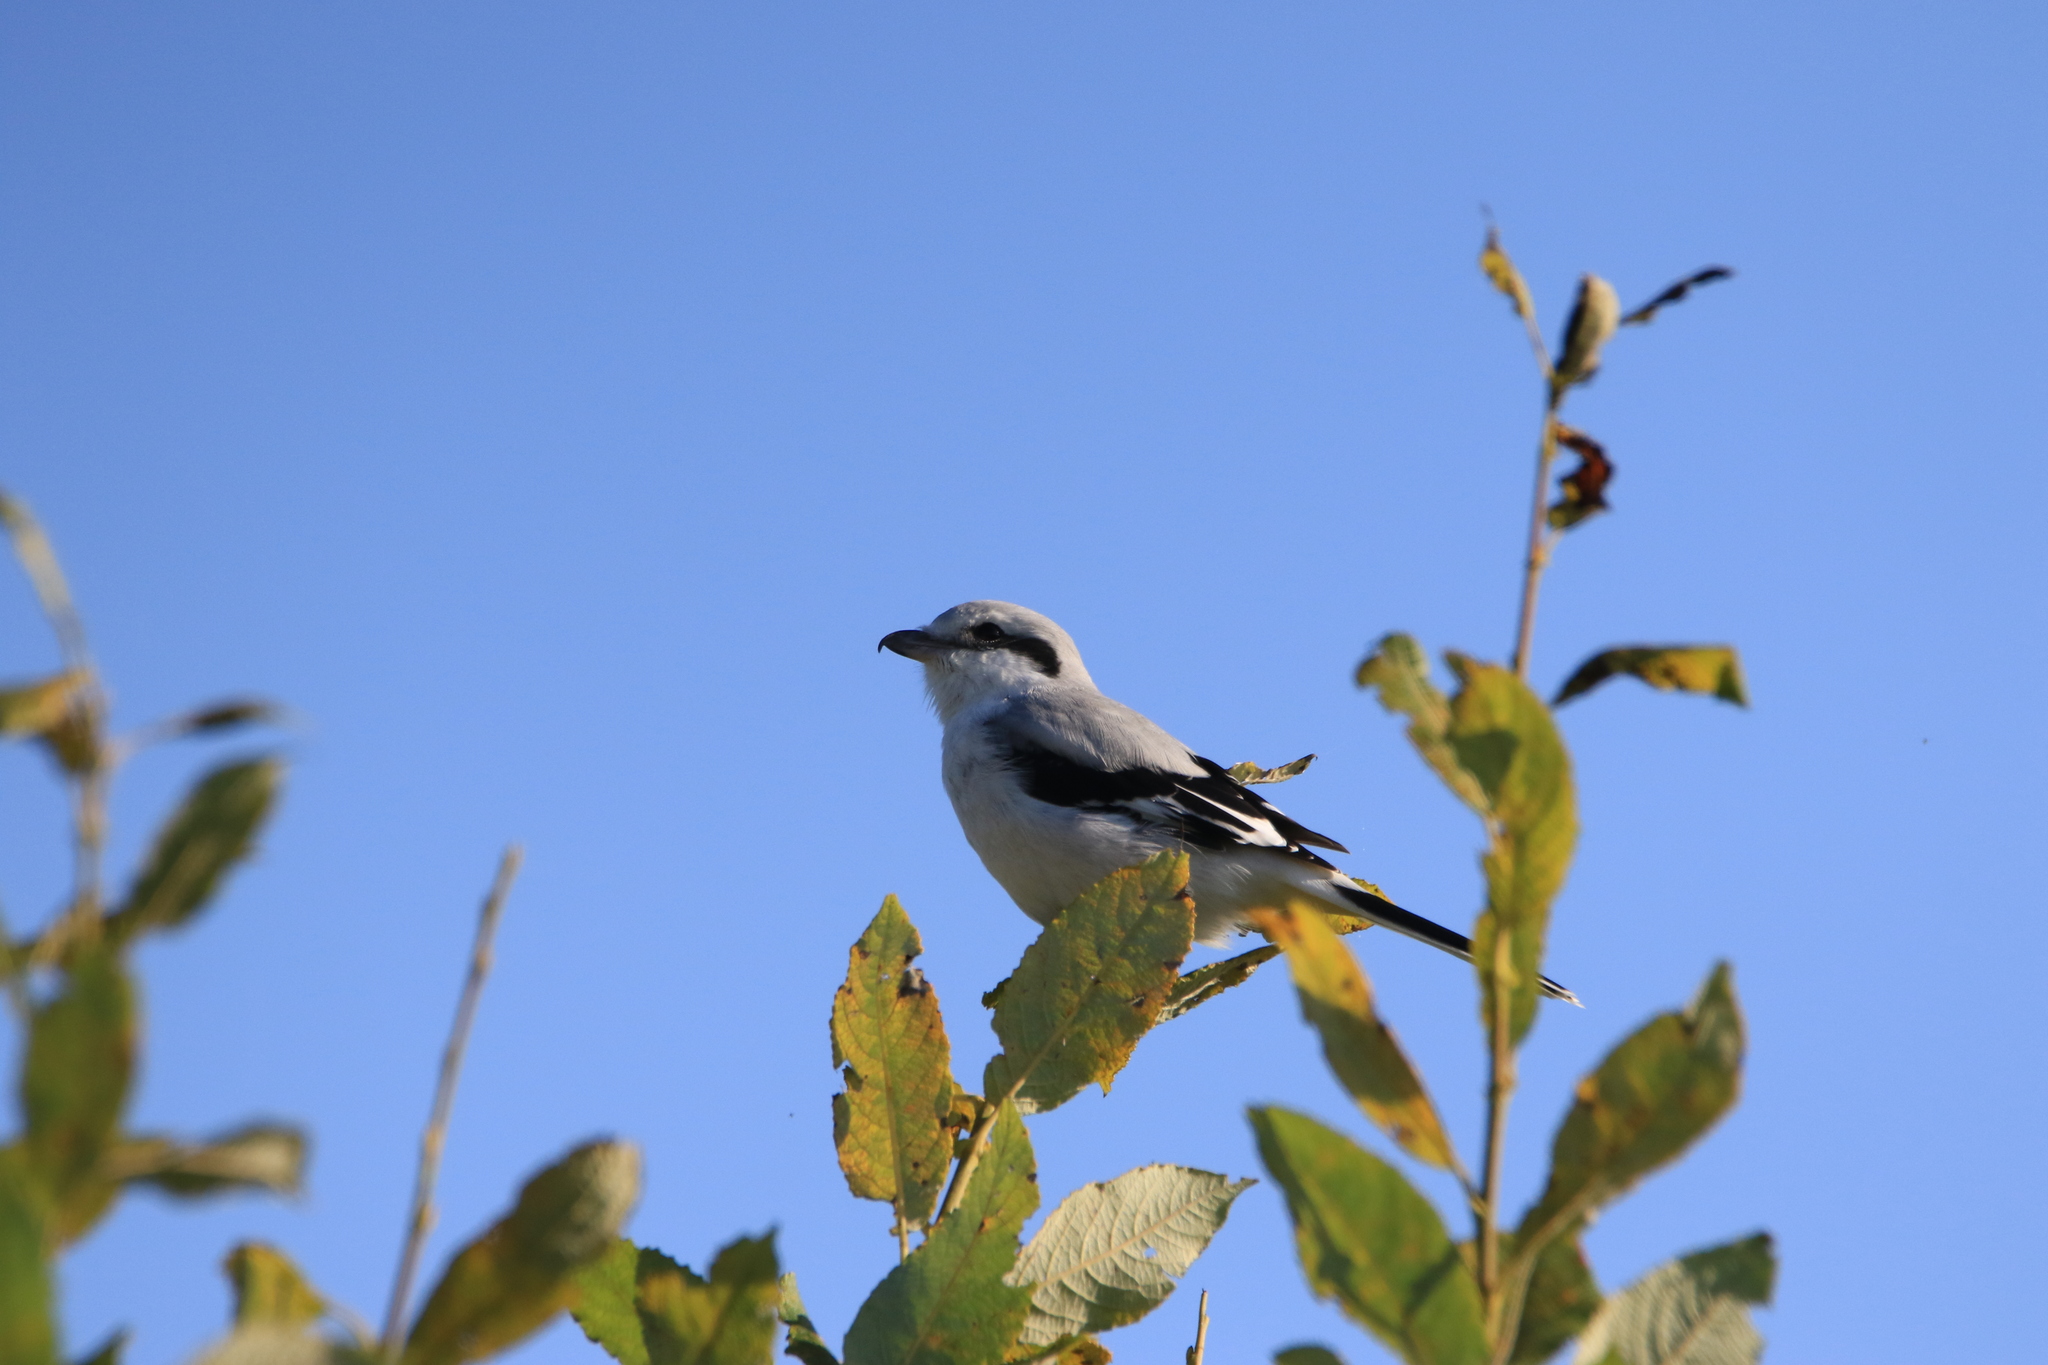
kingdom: Animalia
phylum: Chordata
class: Aves
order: Passeriformes
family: Laniidae
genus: Lanius
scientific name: Lanius excubitor
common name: Great grey shrike
